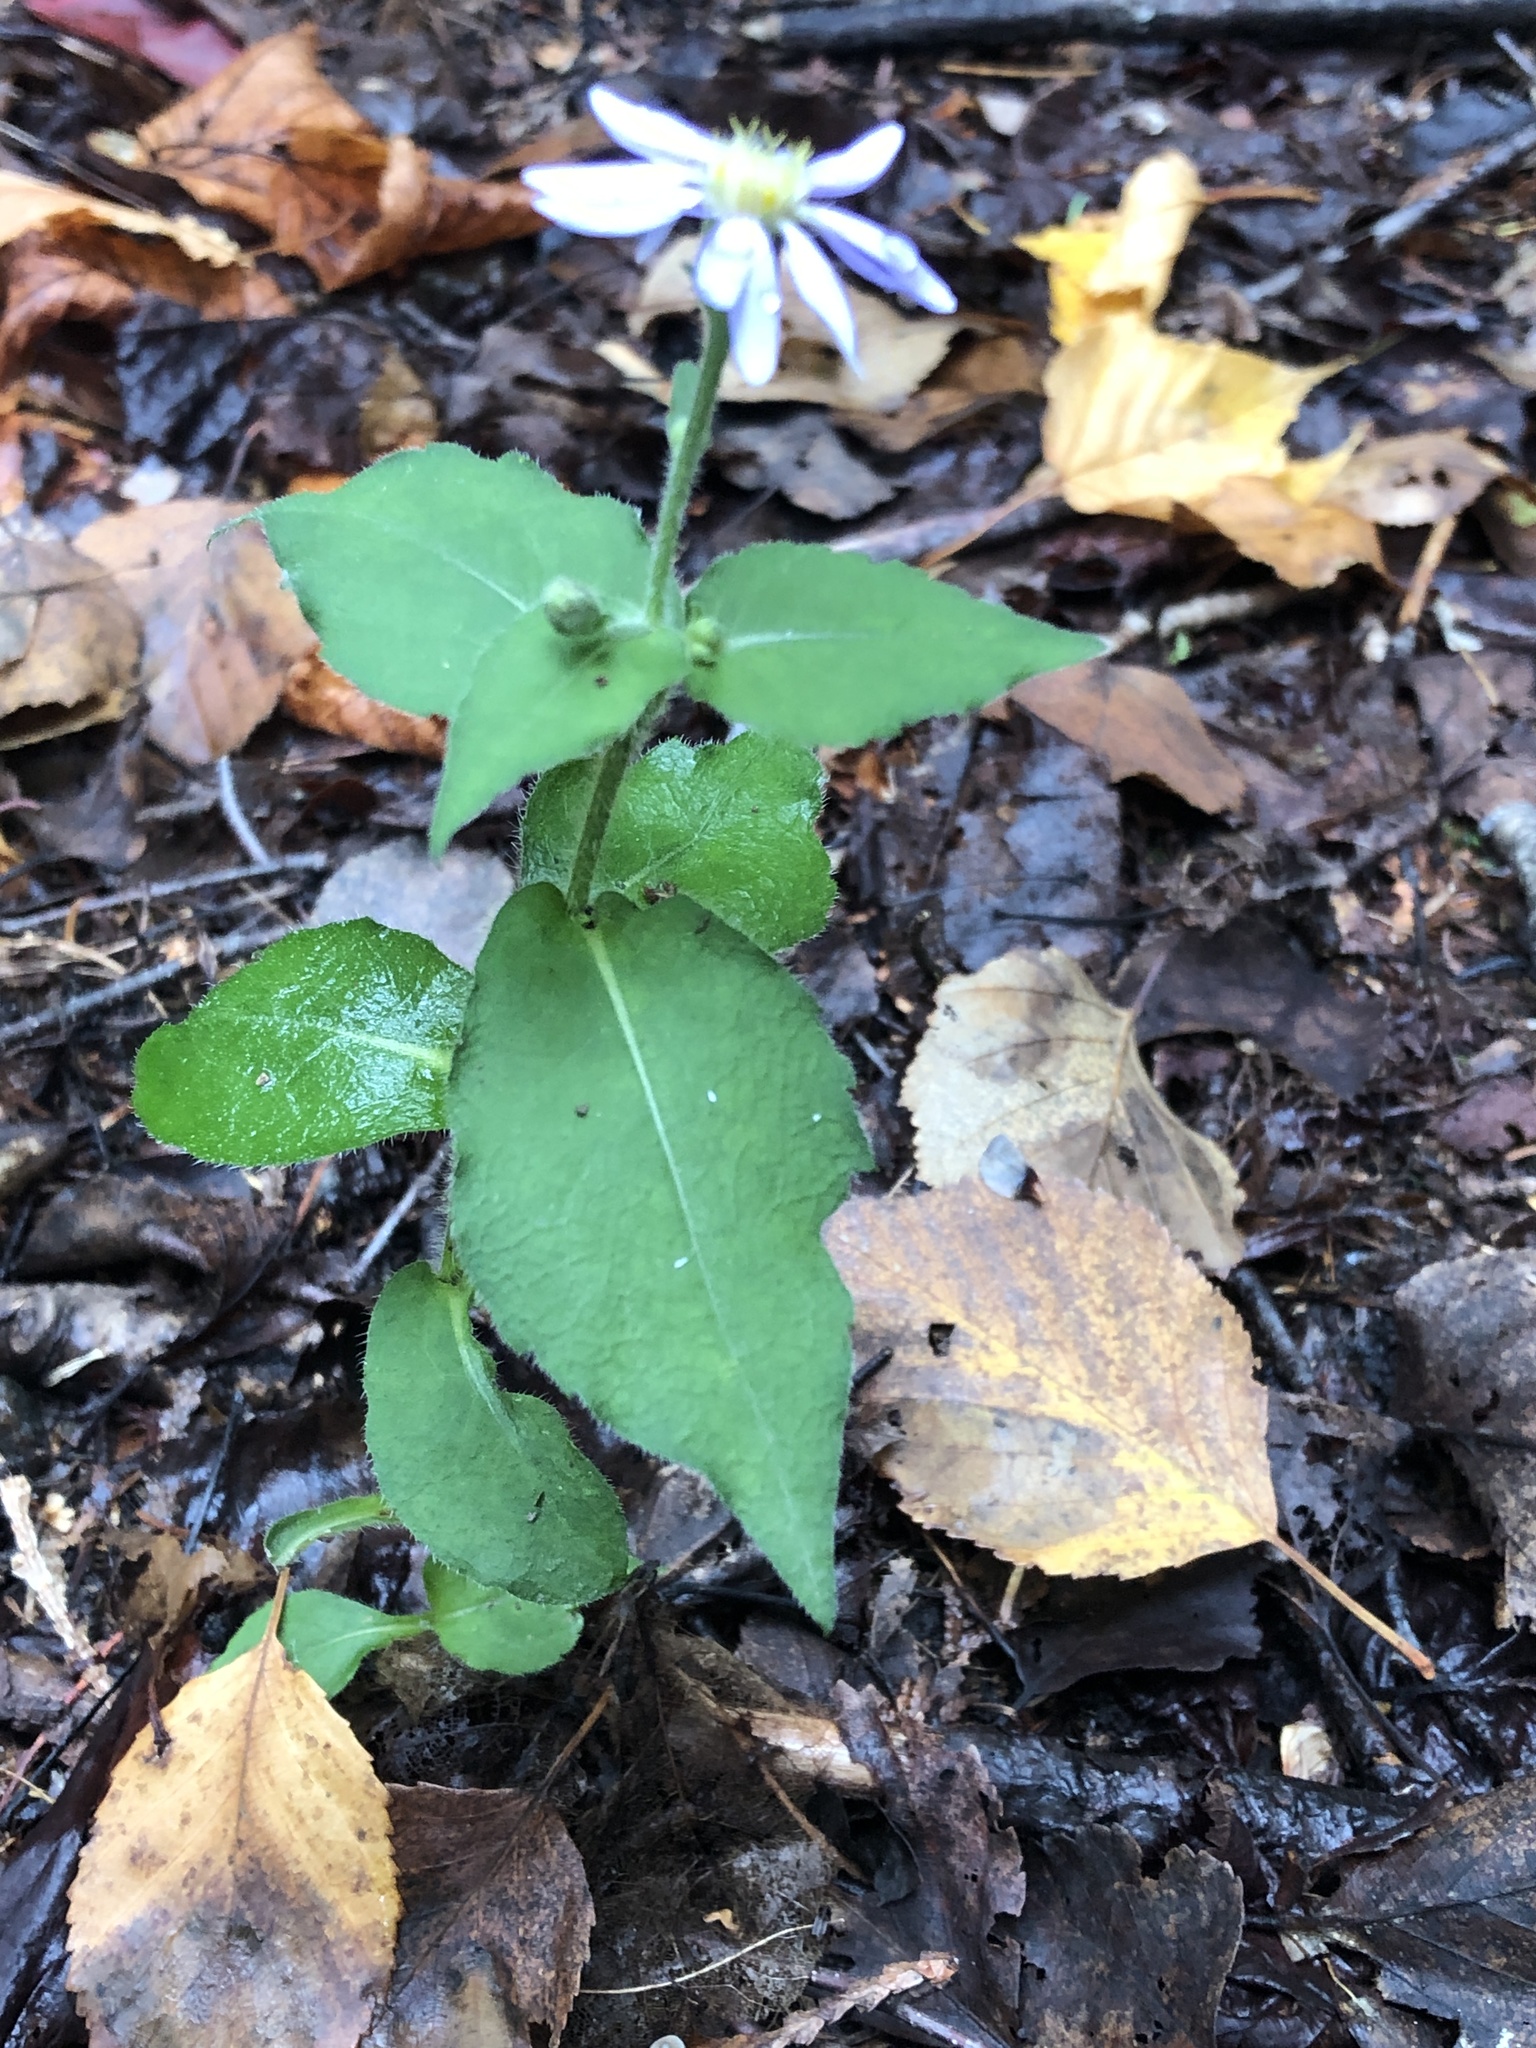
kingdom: Plantae
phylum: Tracheophyta
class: Magnoliopsida
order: Asterales
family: Asteraceae
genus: Eurybia
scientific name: Eurybia macrophylla
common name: Big-leaved aster
